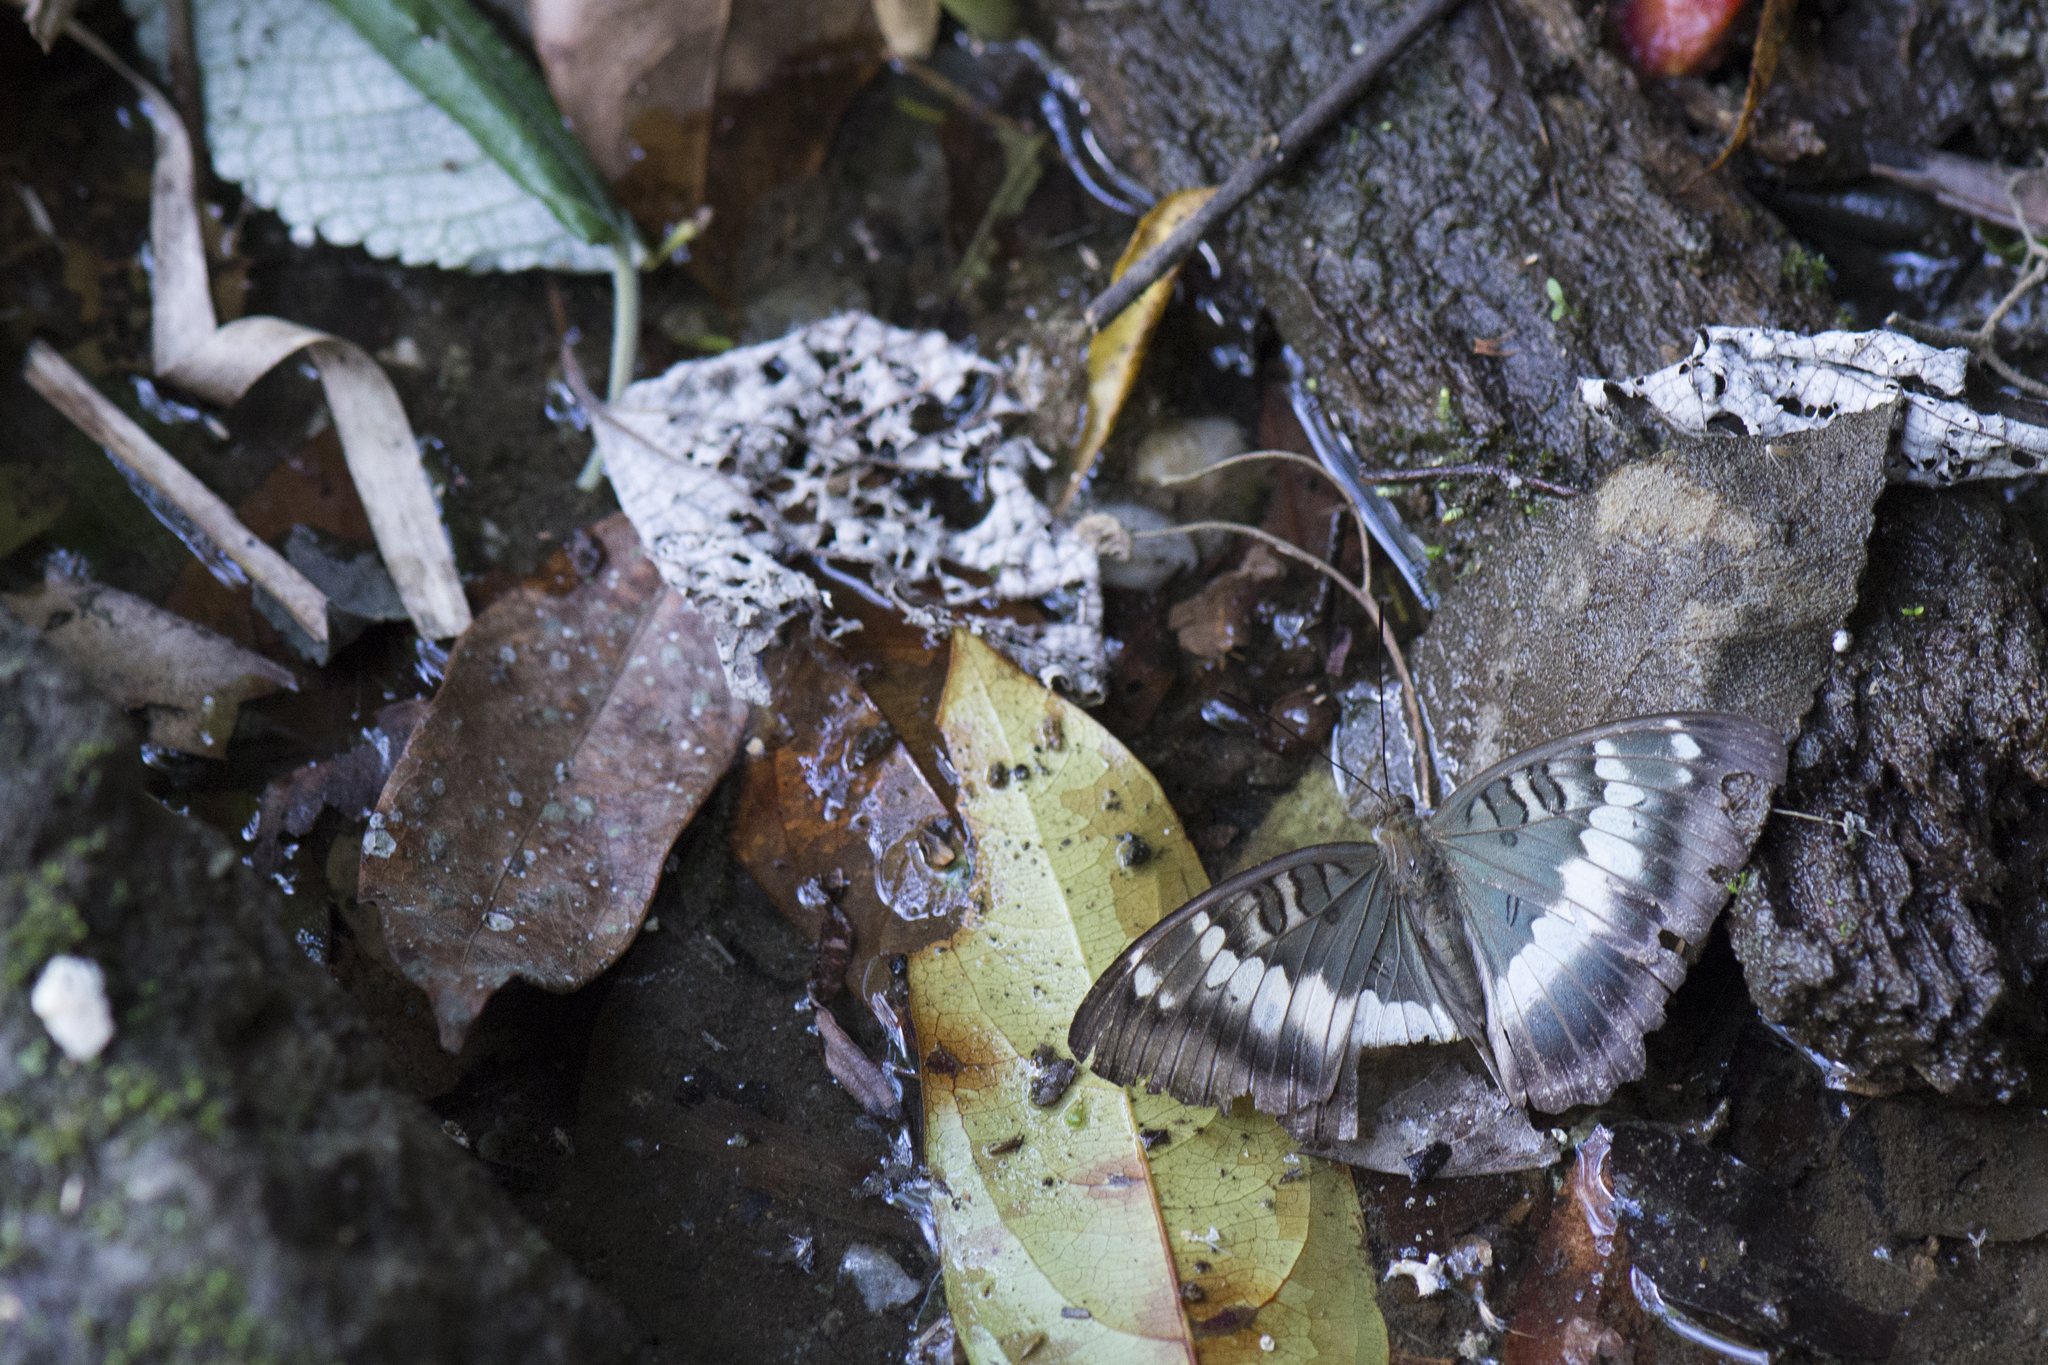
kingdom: Animalia
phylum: Arthropoda
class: Insecta
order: Lepidoptera
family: Nymphalidae
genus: Euthalia
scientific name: Euthalia formosana
